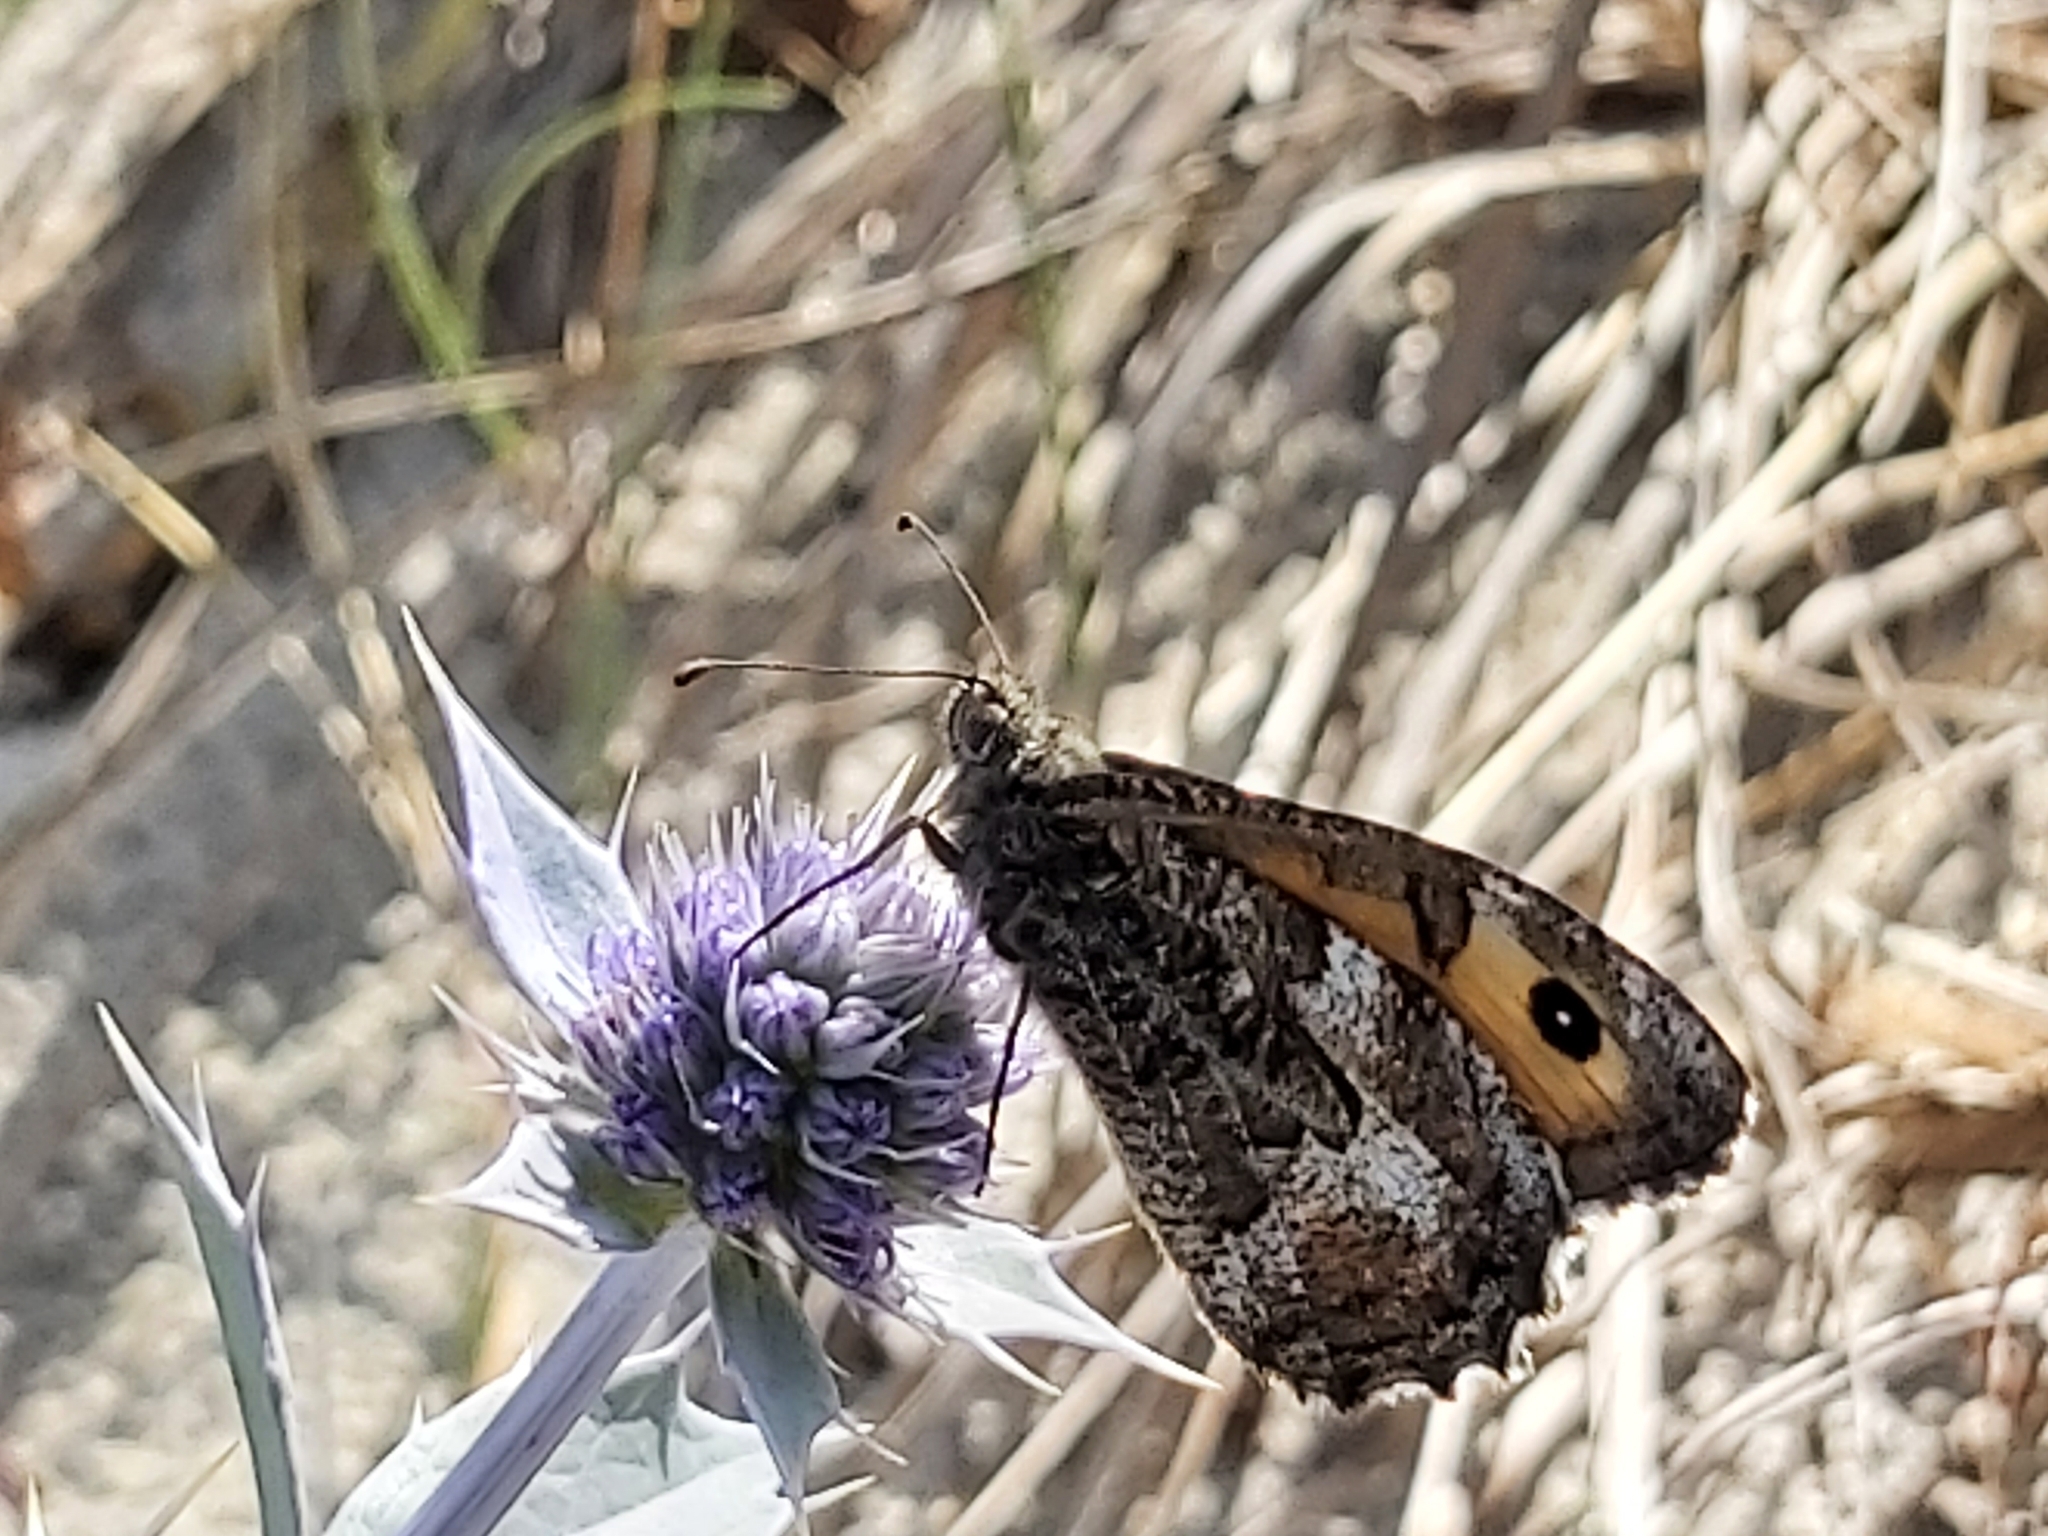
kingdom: Animalia
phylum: Arthropoda
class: Insecta
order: Lepidoptera
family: Nymphalidae
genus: Hipparchia
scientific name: Hipparchia semele
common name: Grayling
